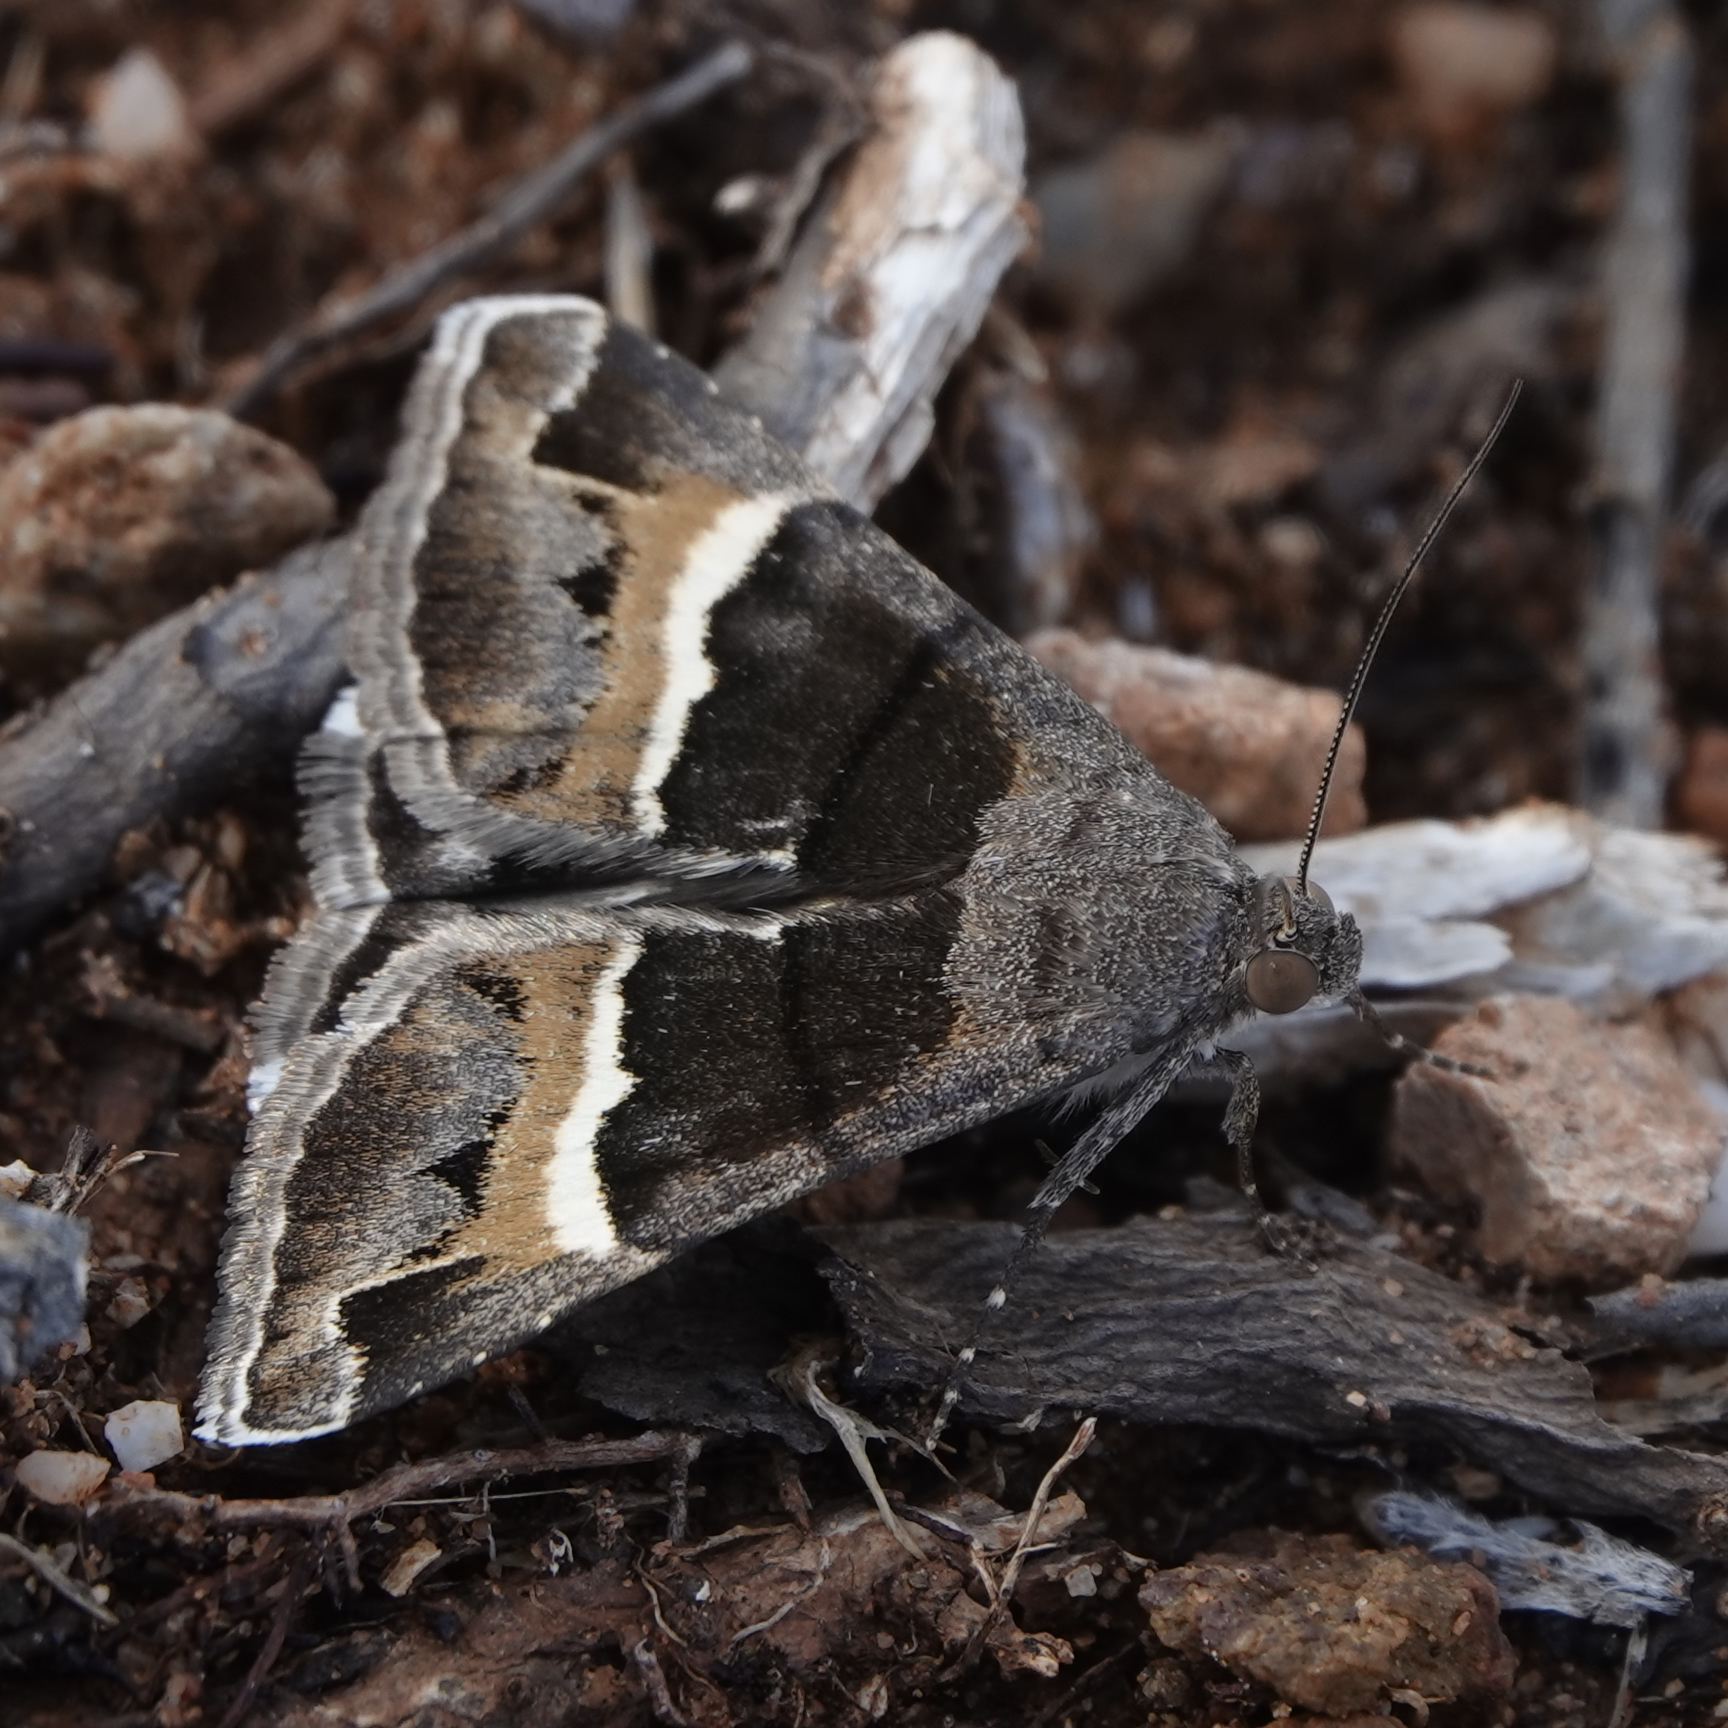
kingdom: Animalia
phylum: Arthropoda
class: Insecta
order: Lepidoptera
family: Erebidae
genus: Grammodes
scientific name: Grammodes stolida
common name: Geometrician
